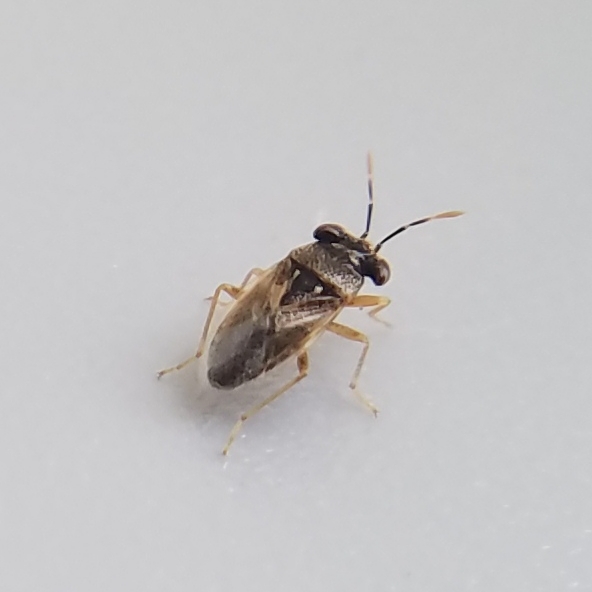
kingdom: Animalia
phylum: Arthropoda
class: Insecta
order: Hemiptera
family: Geocoridae
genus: Geocoris
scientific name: Geocoris punctipes
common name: Big-eyed bug
